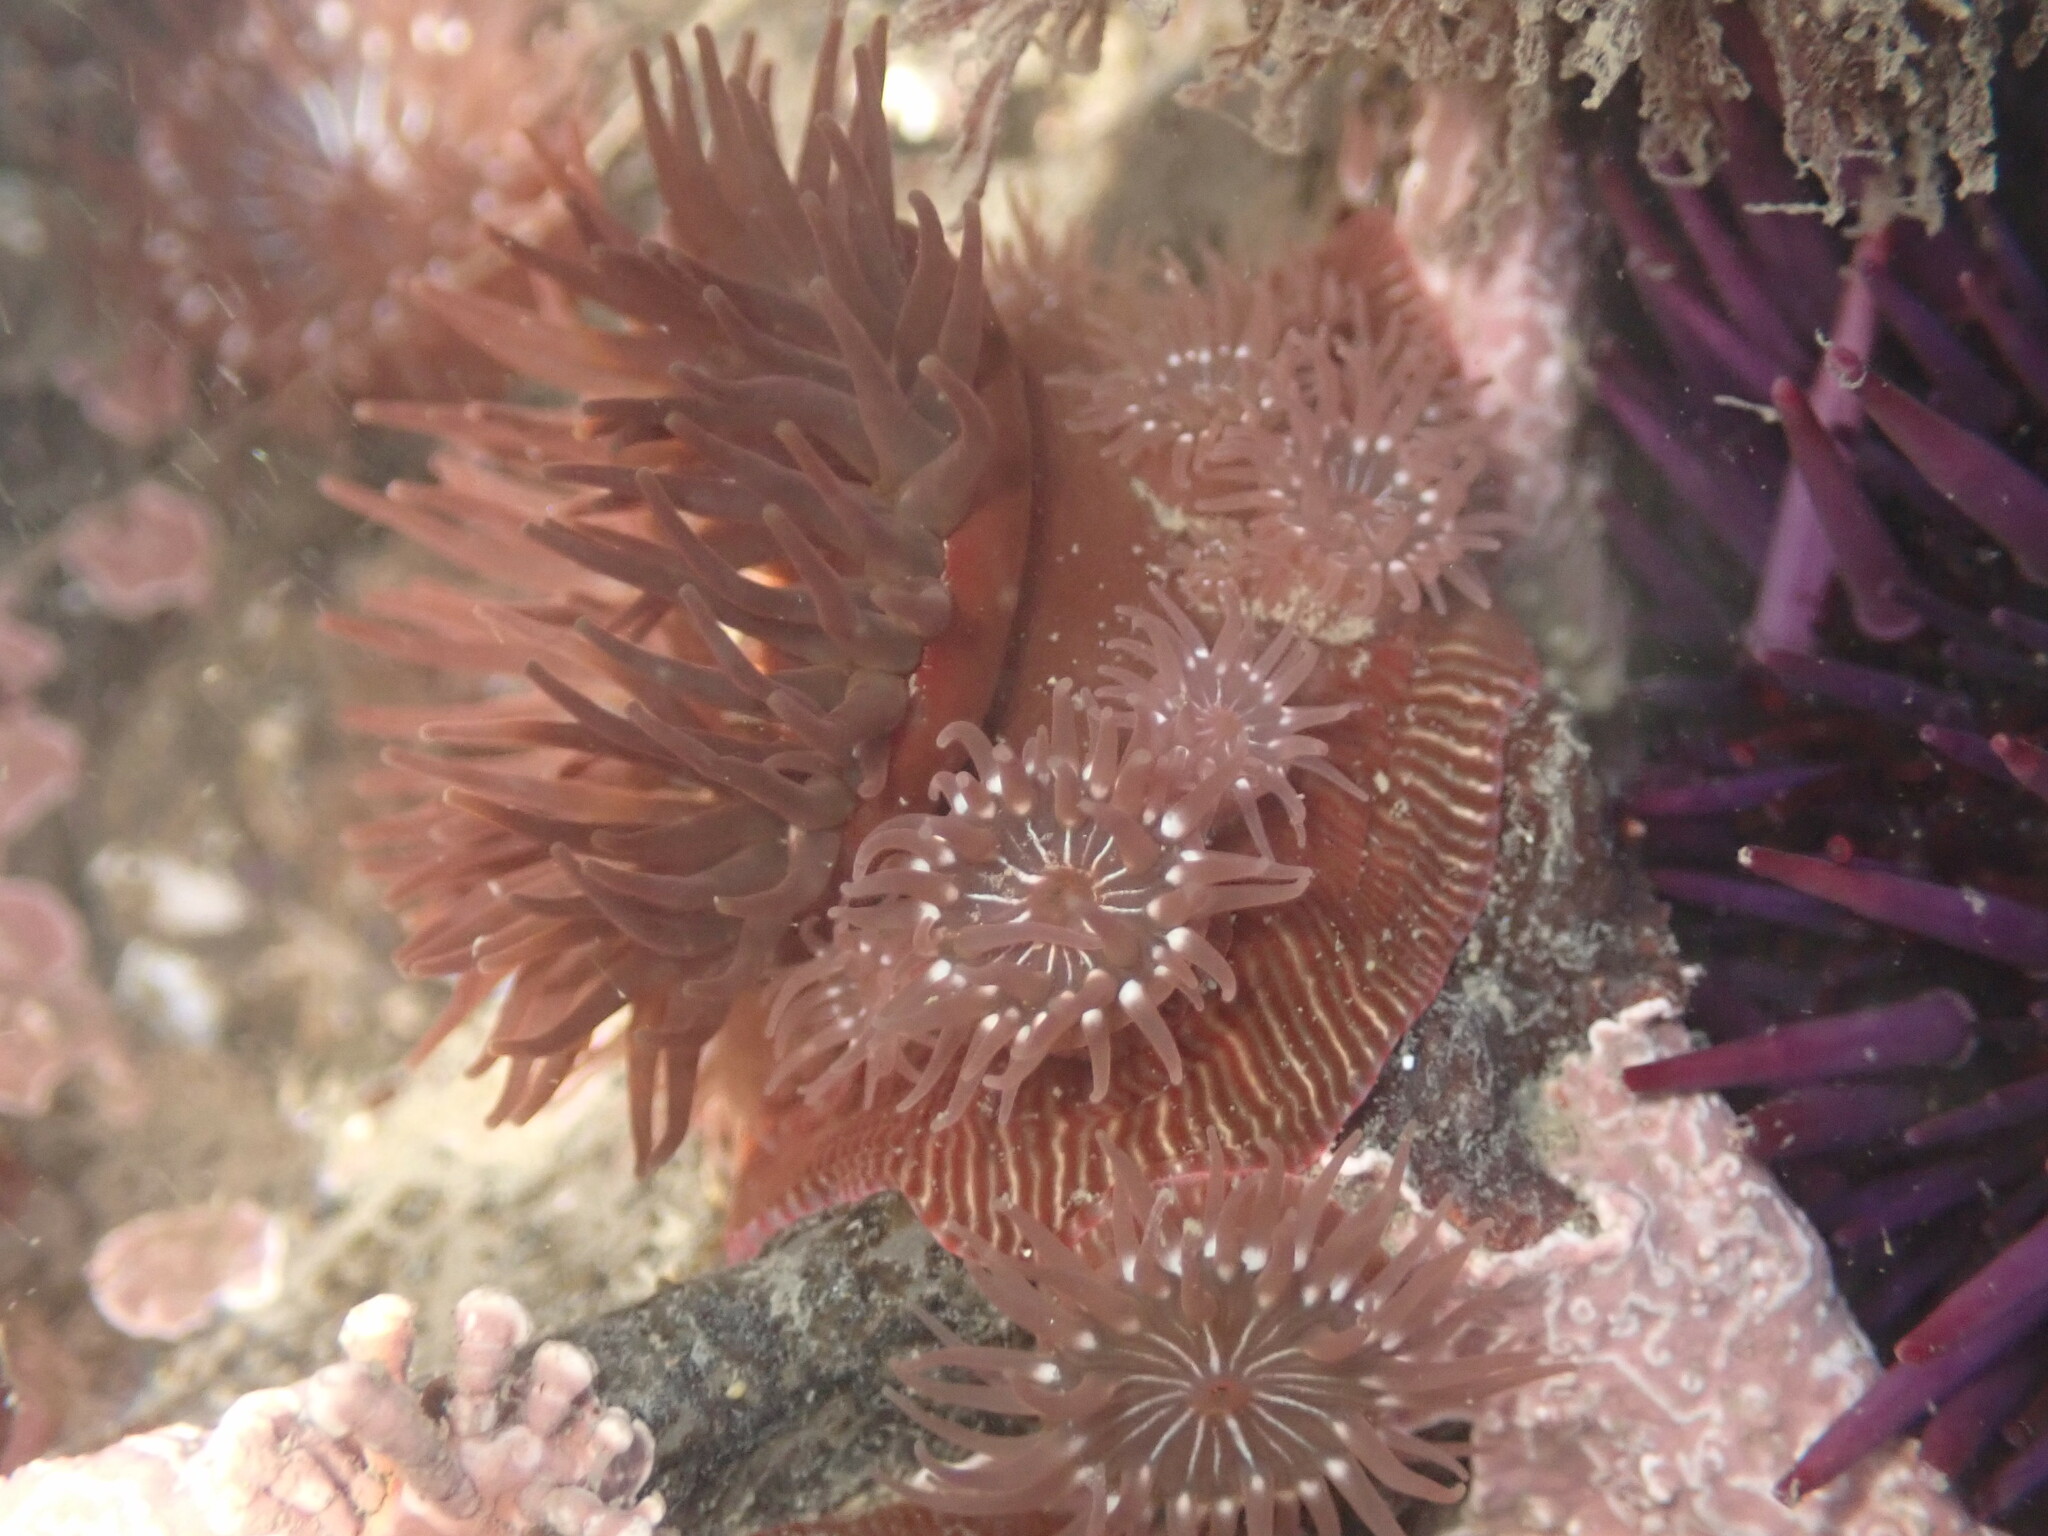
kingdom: Animalia
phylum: Cnidaria
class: Anthozoa
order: Actiniaria
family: Actiniidae
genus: Epiactis
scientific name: Epiactis prolifera
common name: Brooding anemone
